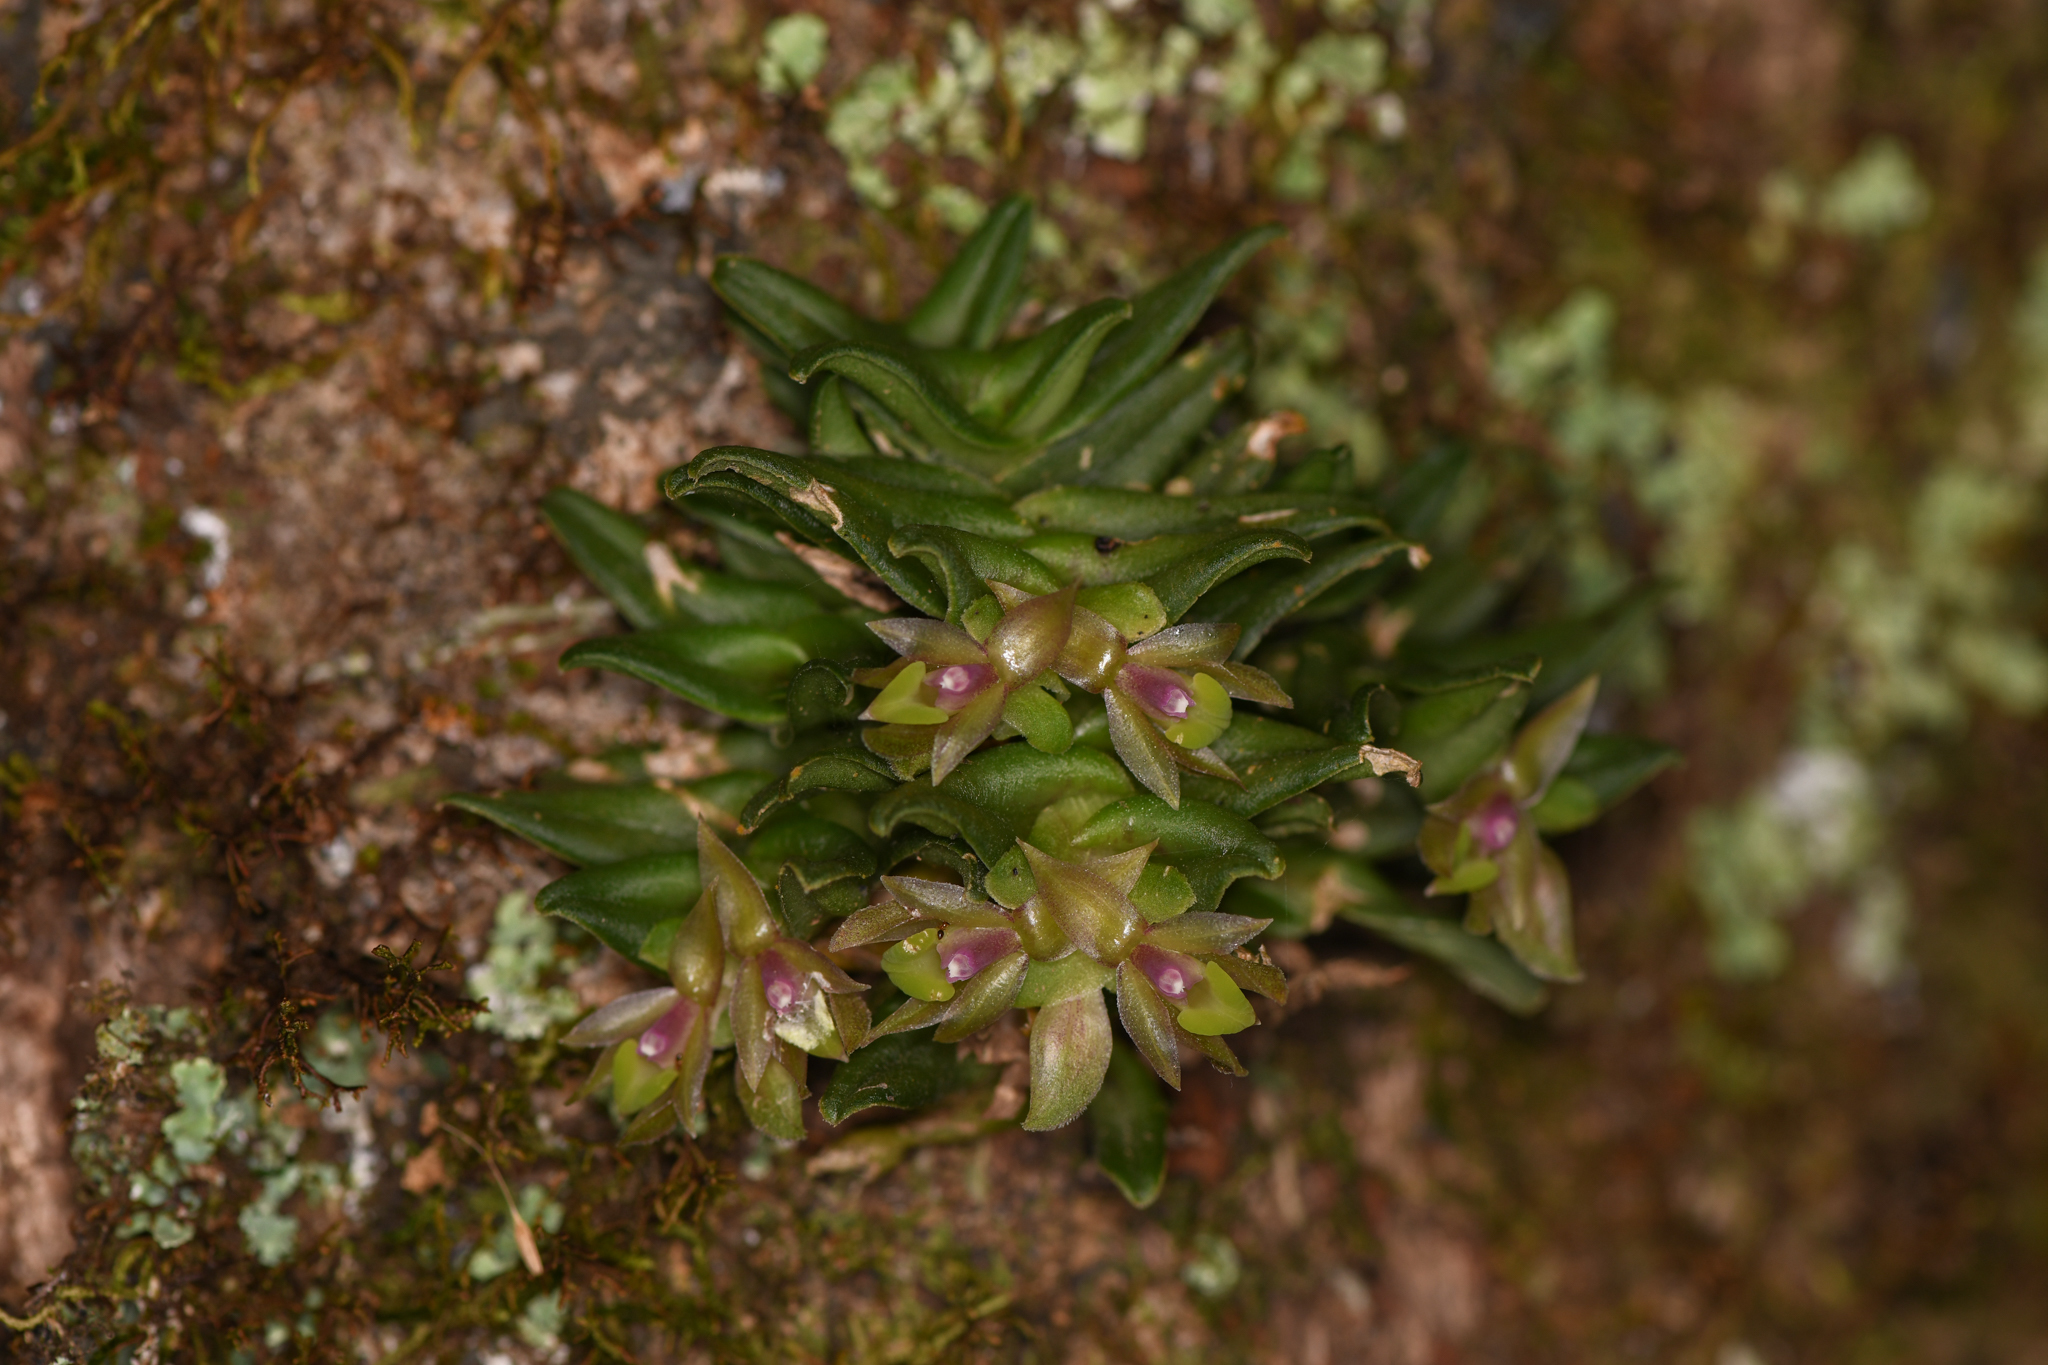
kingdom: Plantae
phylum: Tracheophyta
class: Liliopsida
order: Asparagales
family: Orchidaceae
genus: Epidendrum
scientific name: Epidendrum congestum
